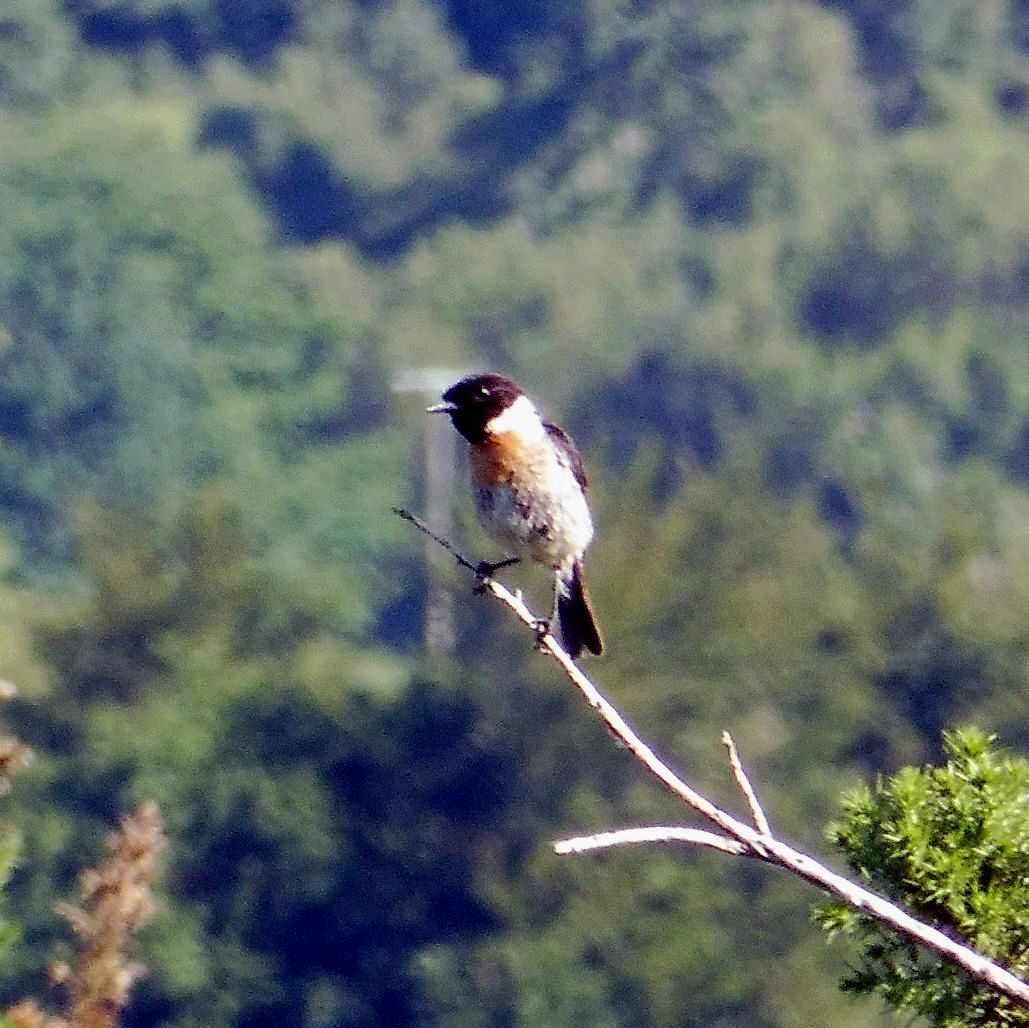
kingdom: Animalia
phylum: Chordata
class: Aves
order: Passeriformes
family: Muscicapidae
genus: Saxicola
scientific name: Saxicola rubicola
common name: European stonechat
